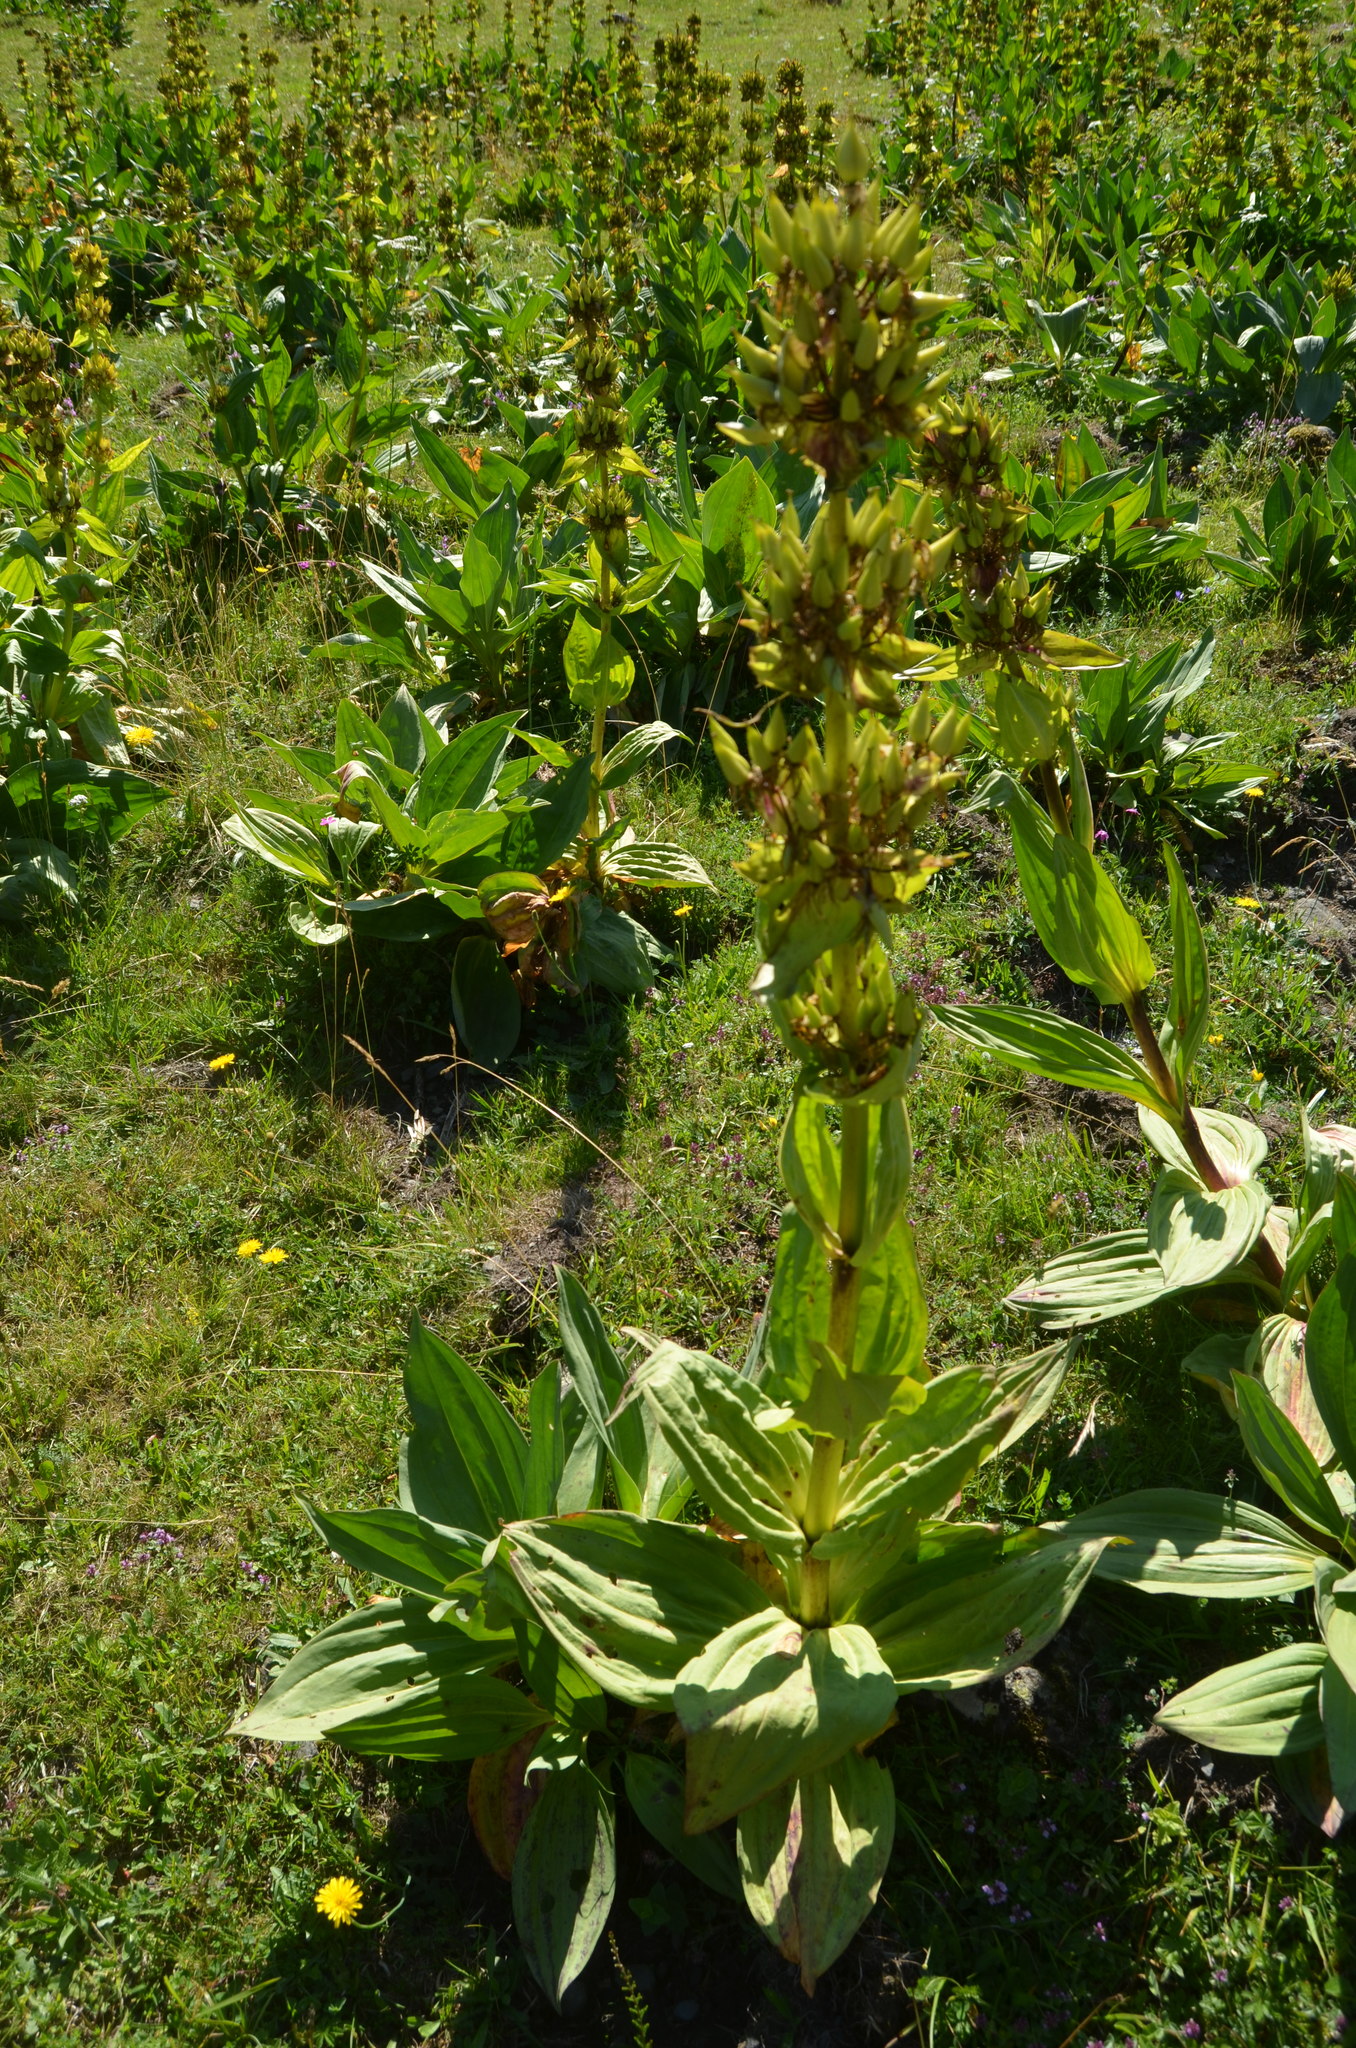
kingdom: Plantae
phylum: Tracheophyta
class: Magnoliopsida
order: Gentianales
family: Gentianaceae
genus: Gentiana
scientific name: Gentiana lutea
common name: Great yellow gentian
